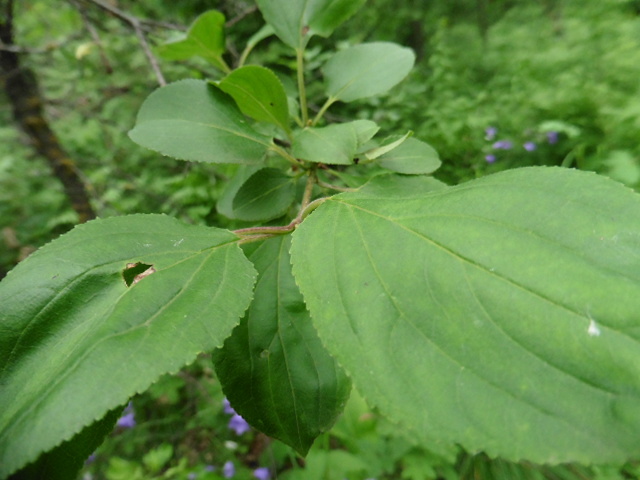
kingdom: Plantae
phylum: Tracheophyta
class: Magnoliopsida
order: Rosales
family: Rhamnaceae
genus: Rhamnus
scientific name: Rhamnus cathartica
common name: Common buckthorn
